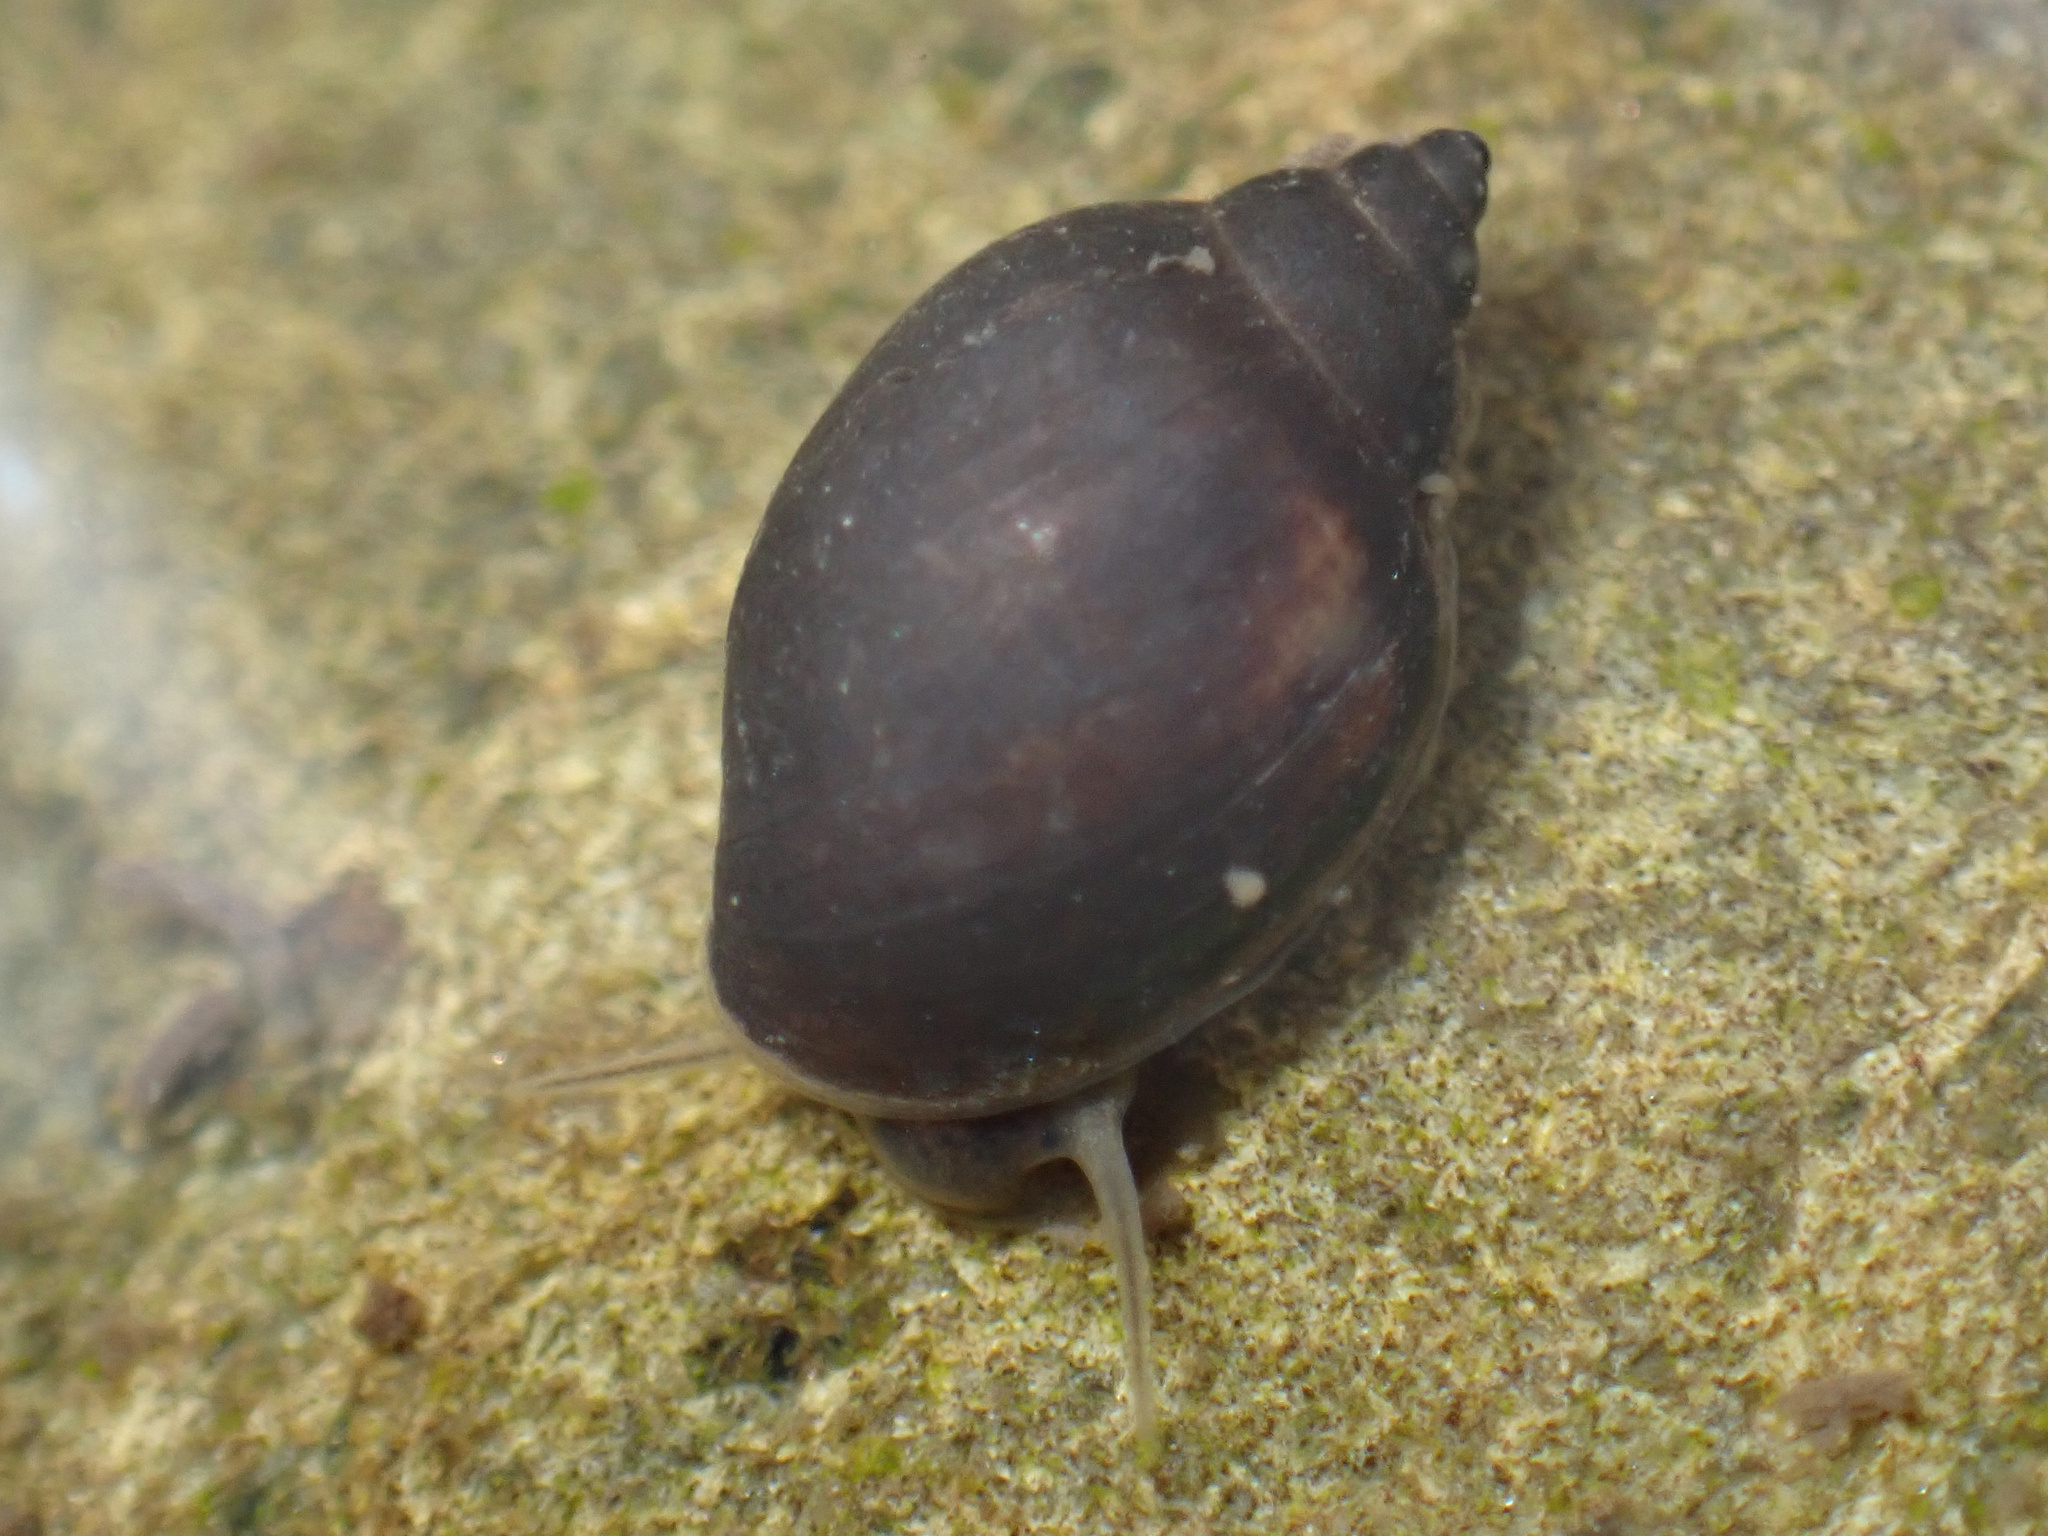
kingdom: Animalia
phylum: Mollusca
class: Gastropoda
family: Planorbidae
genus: Glyptophysa
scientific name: Glyptophysa novaehollandica
